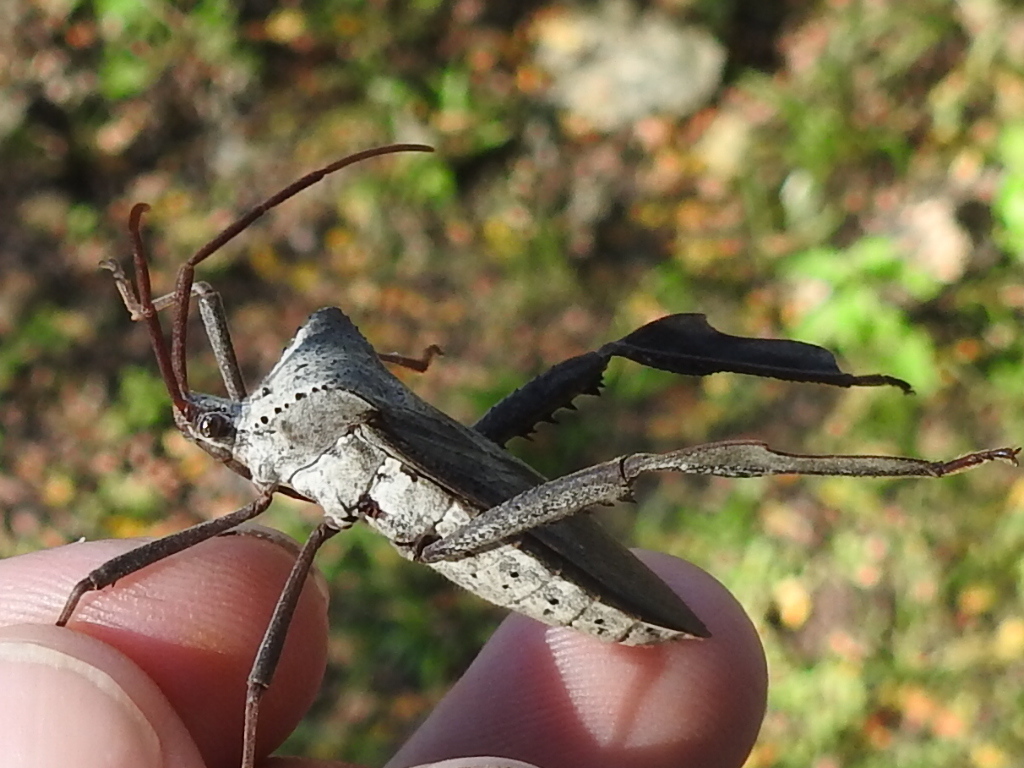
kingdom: Animalia
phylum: Arthropoda
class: Insecta
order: Hemiptera
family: Coreidae
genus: Acanthocephala
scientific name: Acanthocephala declivis
